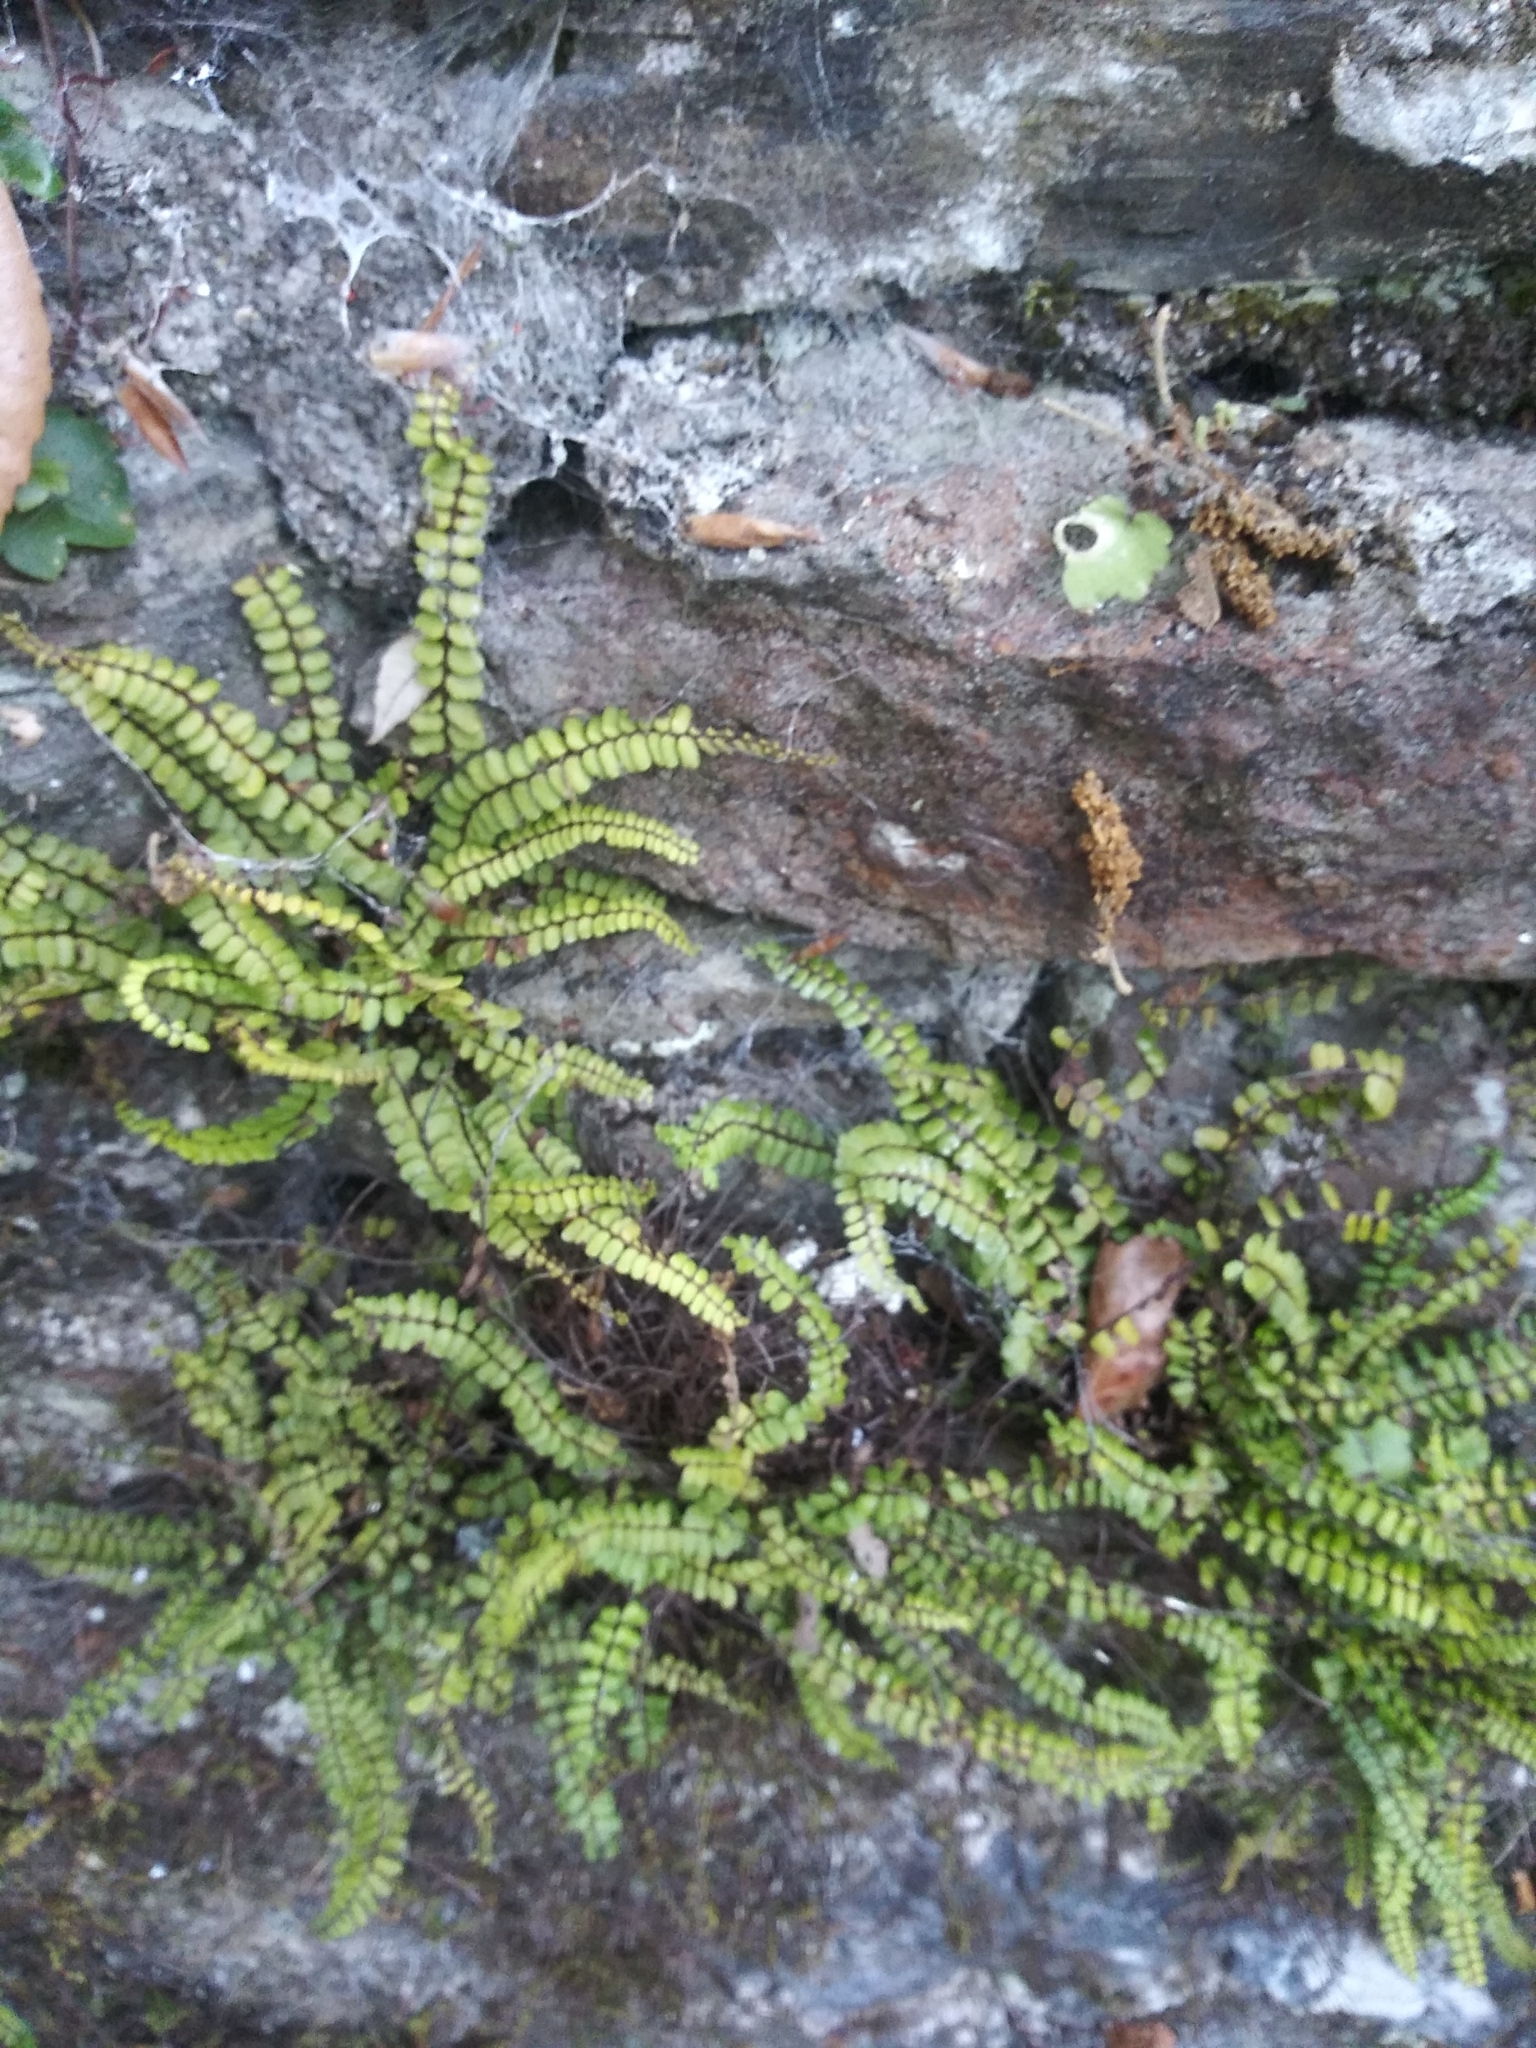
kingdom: Plantae
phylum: Tracheophyta
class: Polypodiopsida
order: Polypodiales
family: Aspleniaceae
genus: Asplenium
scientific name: Asplenium trichomanes
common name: Maidenhair spleenwort
